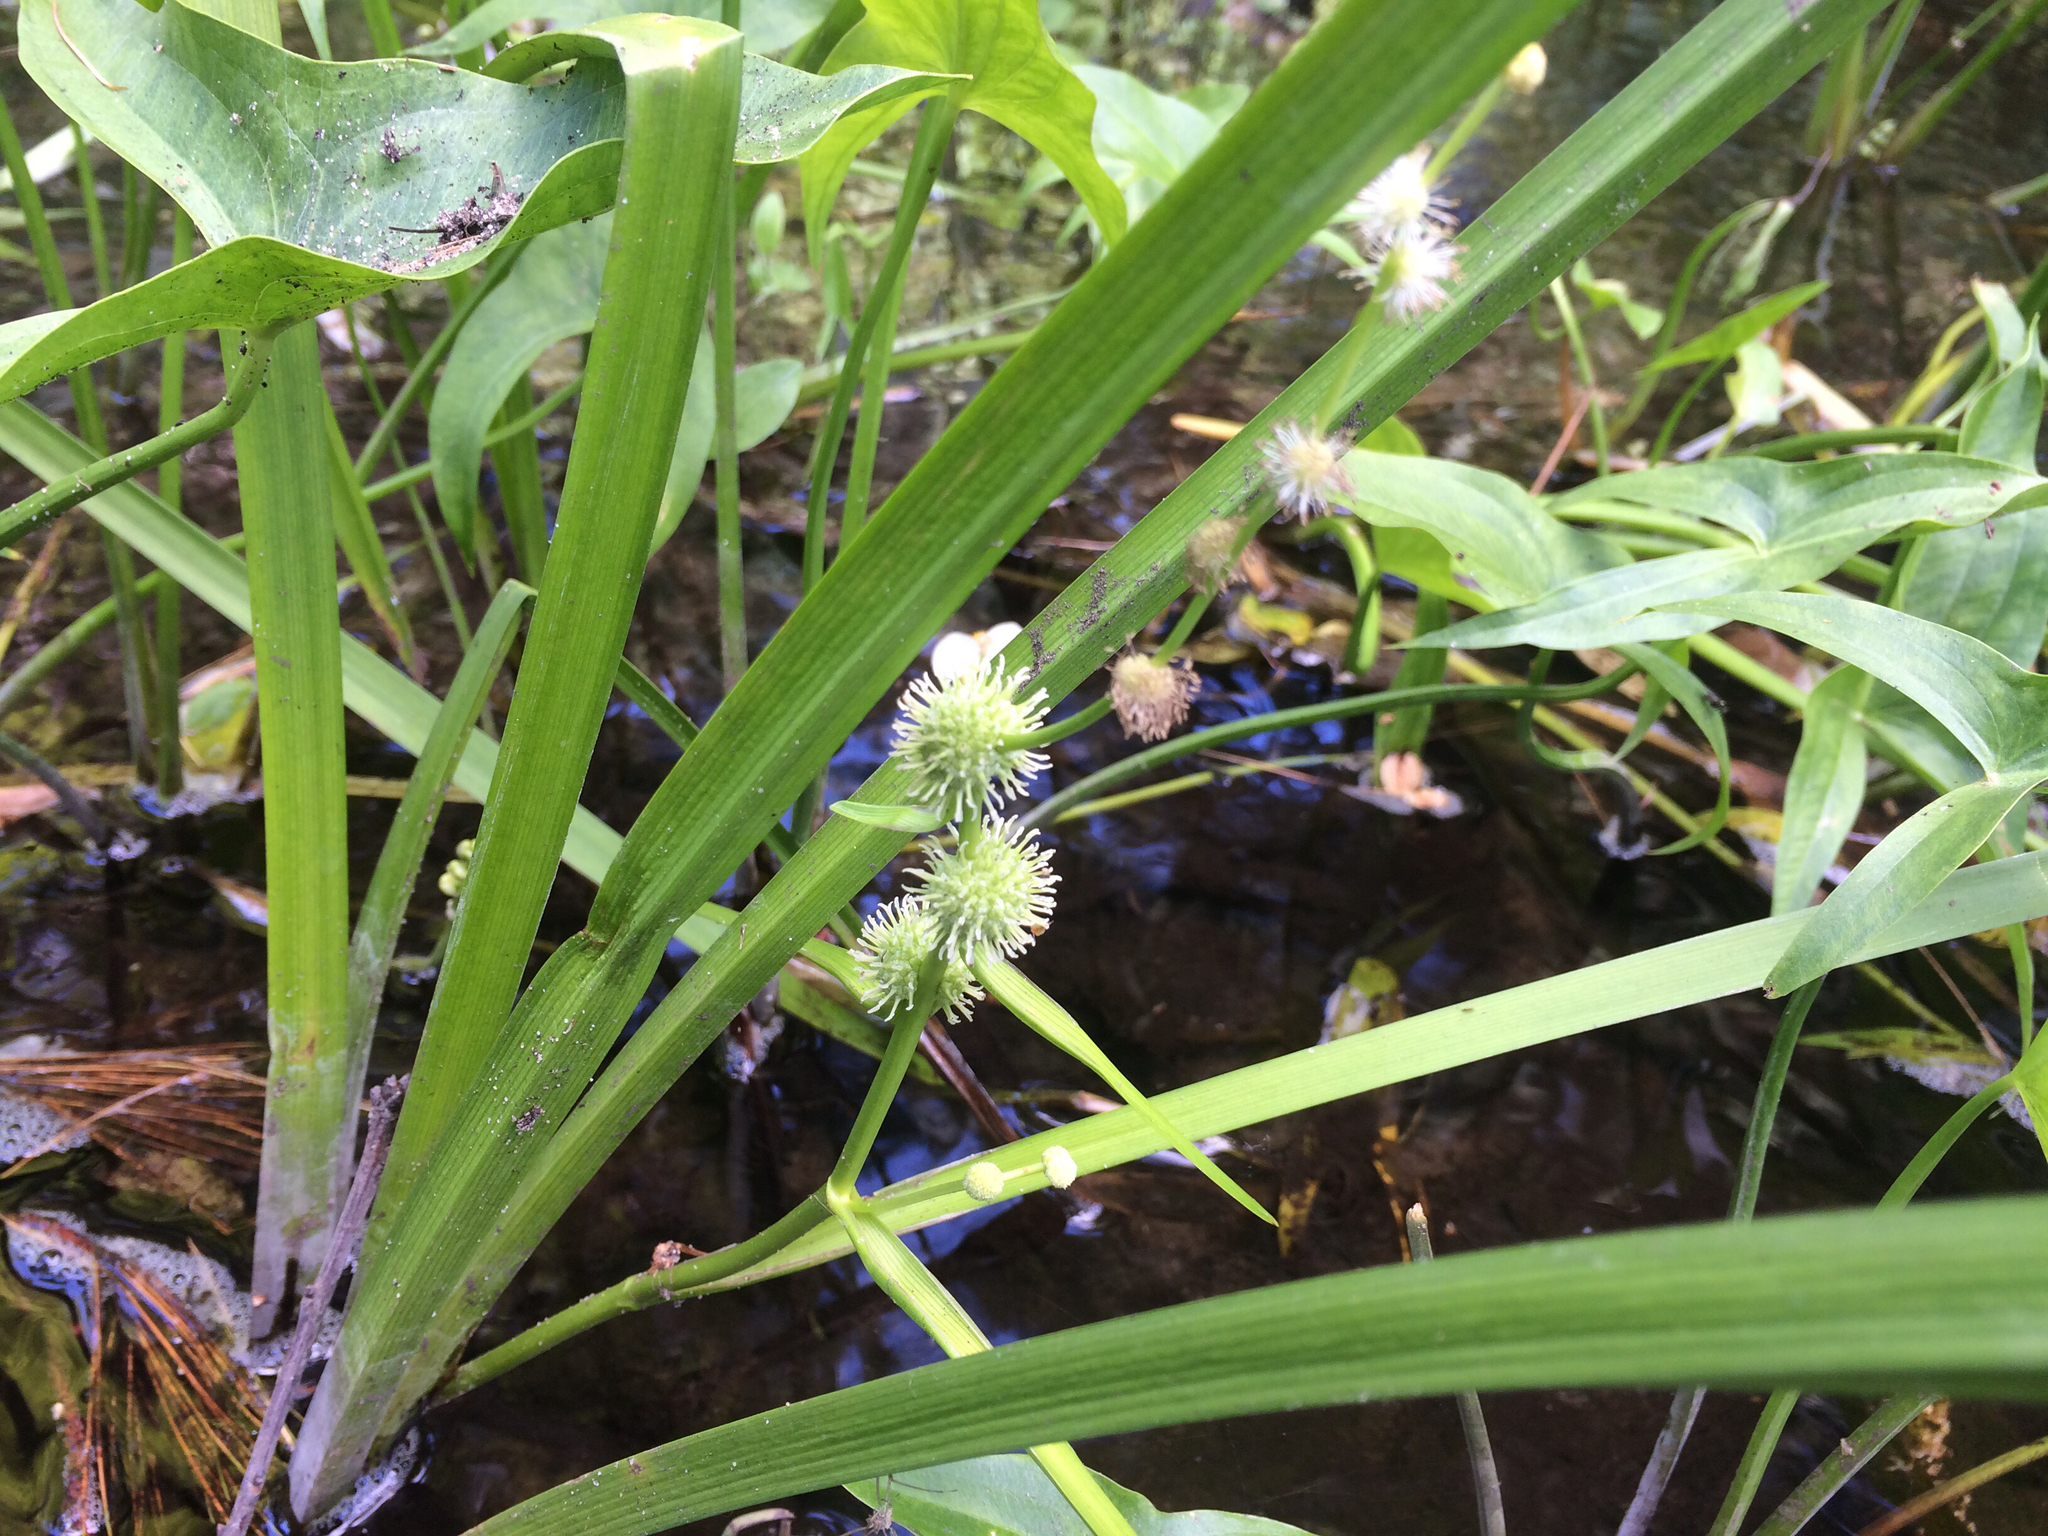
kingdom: Plantae
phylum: Tracheophyta
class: Liliopsida
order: Poales
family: Typhaceae
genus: Sparganium
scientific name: Sparganium americanum
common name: American burreed
